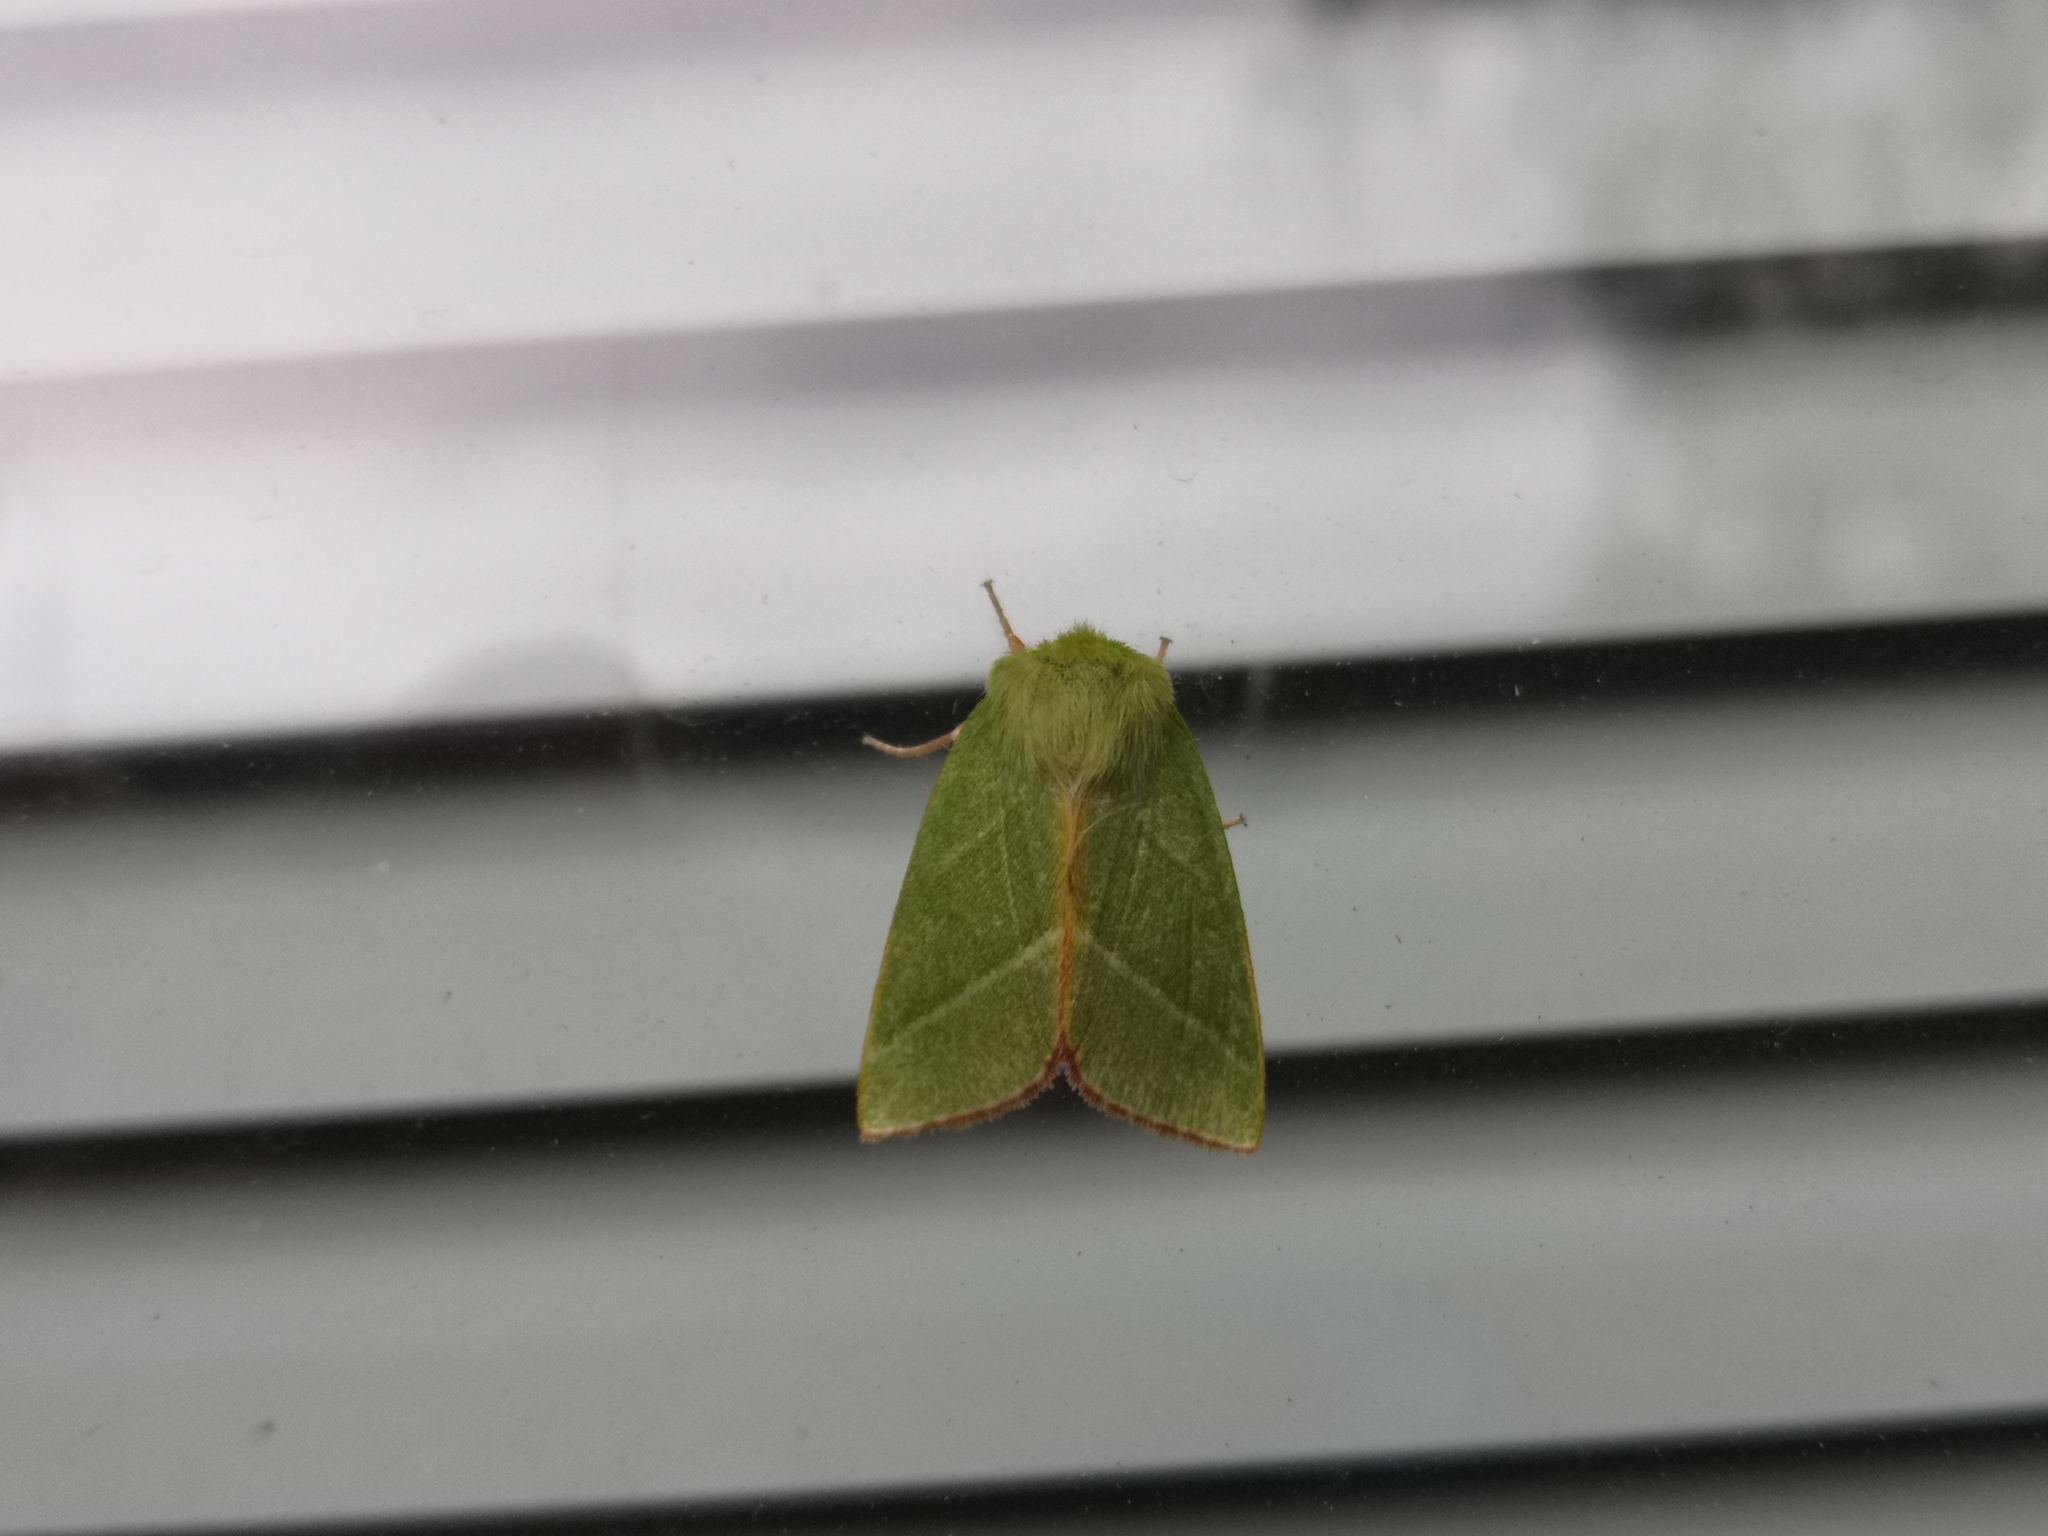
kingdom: Animalia
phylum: Arthropoda
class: Insecta
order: Lepidoptera
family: Nolidae
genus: Pseudoips
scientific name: Pseudoips prasinana
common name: Green silver-lines
